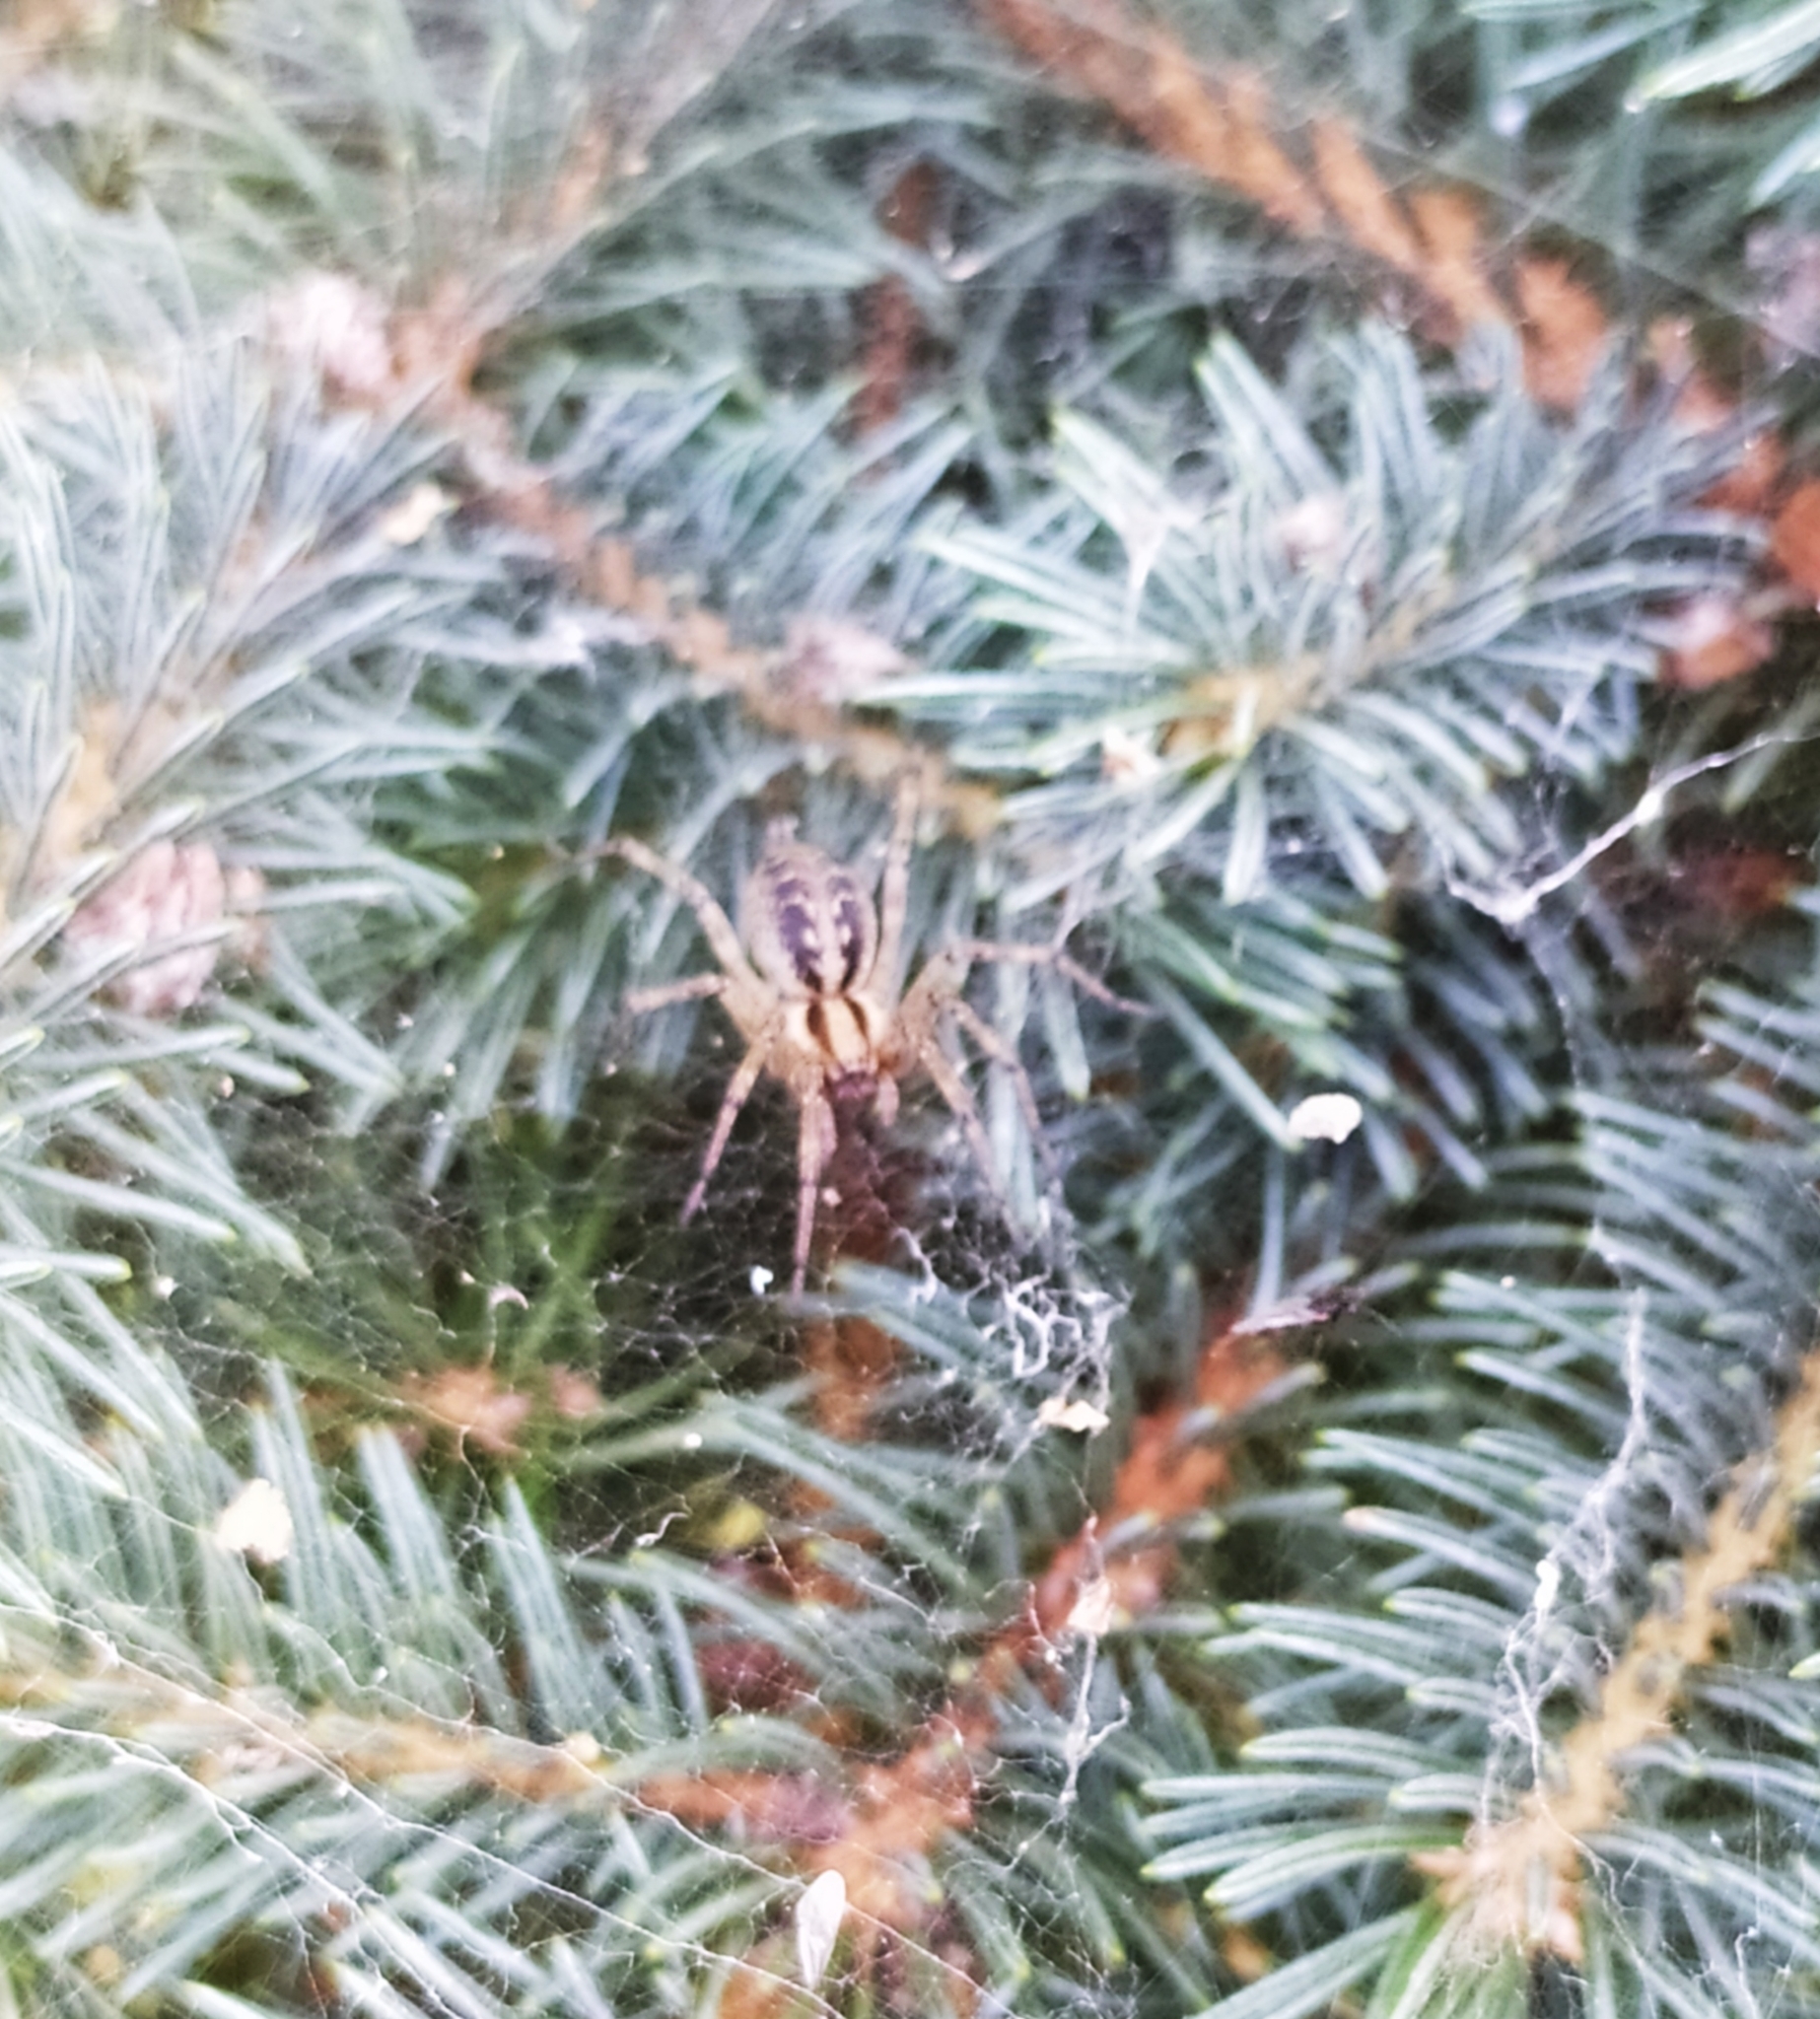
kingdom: Animalia
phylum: Arthropoda
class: Arachnida
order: Araneae
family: Agelenidae
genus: Agelena
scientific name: Agelena labyrinthica
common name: Labyrinth spider
